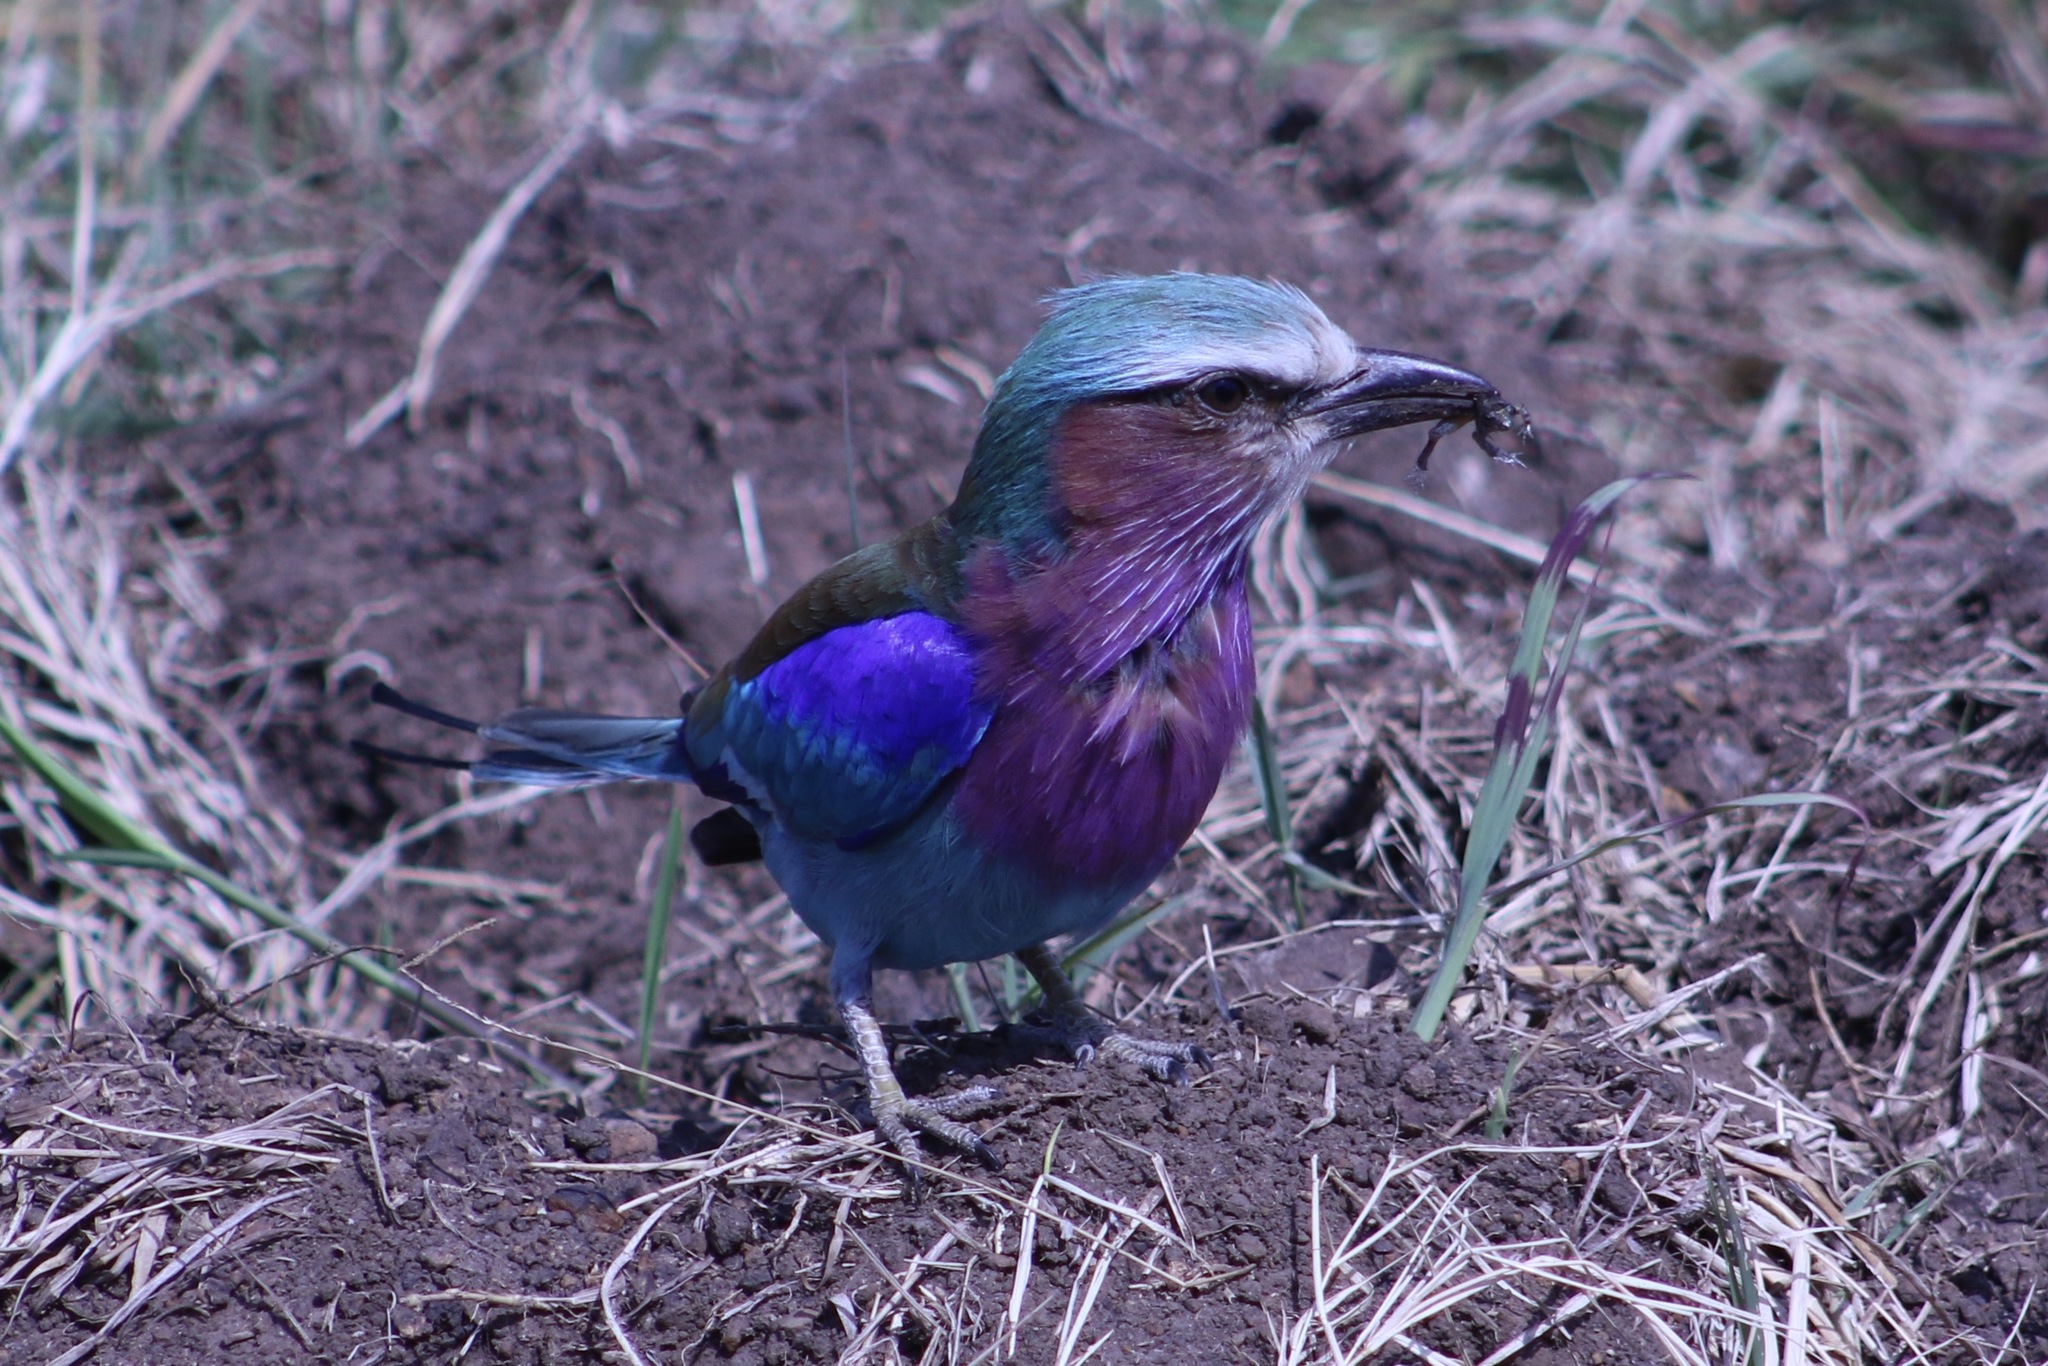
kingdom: Animalia
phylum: Chordata
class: Aves
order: Coraciiformes
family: Coraciidae
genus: Coracias
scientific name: Coracias caudatus
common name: Lilac-breasted roller
